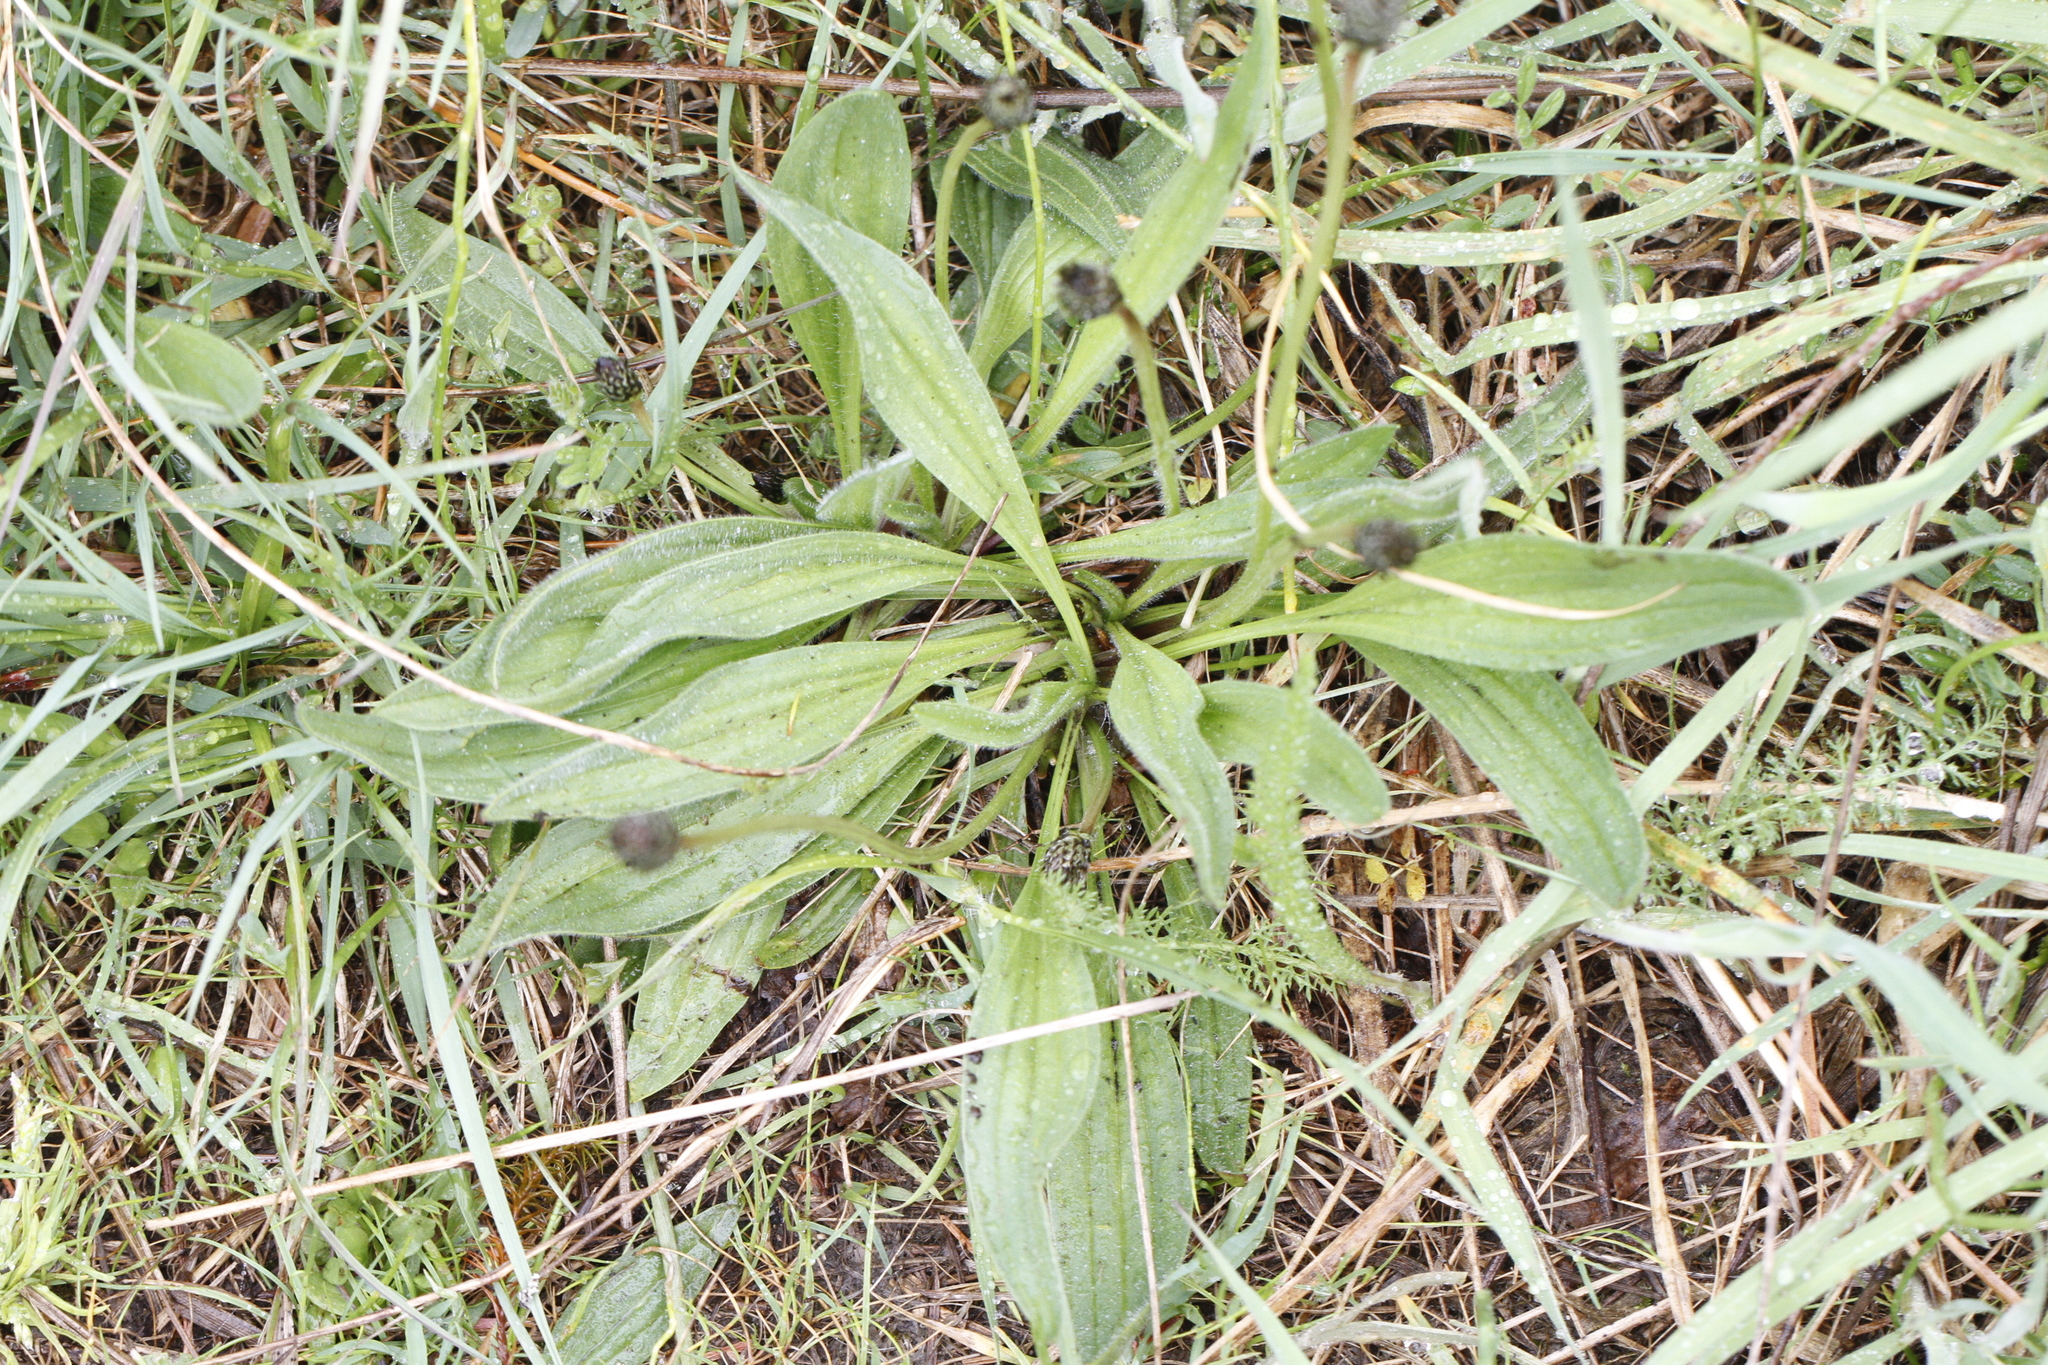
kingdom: Plantae
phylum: Tracheophyta
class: Magnoliopsida
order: Lamiales
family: Plantaginaceae
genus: Plantago
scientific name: Plantago lanceolata
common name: Ribwort plantain
